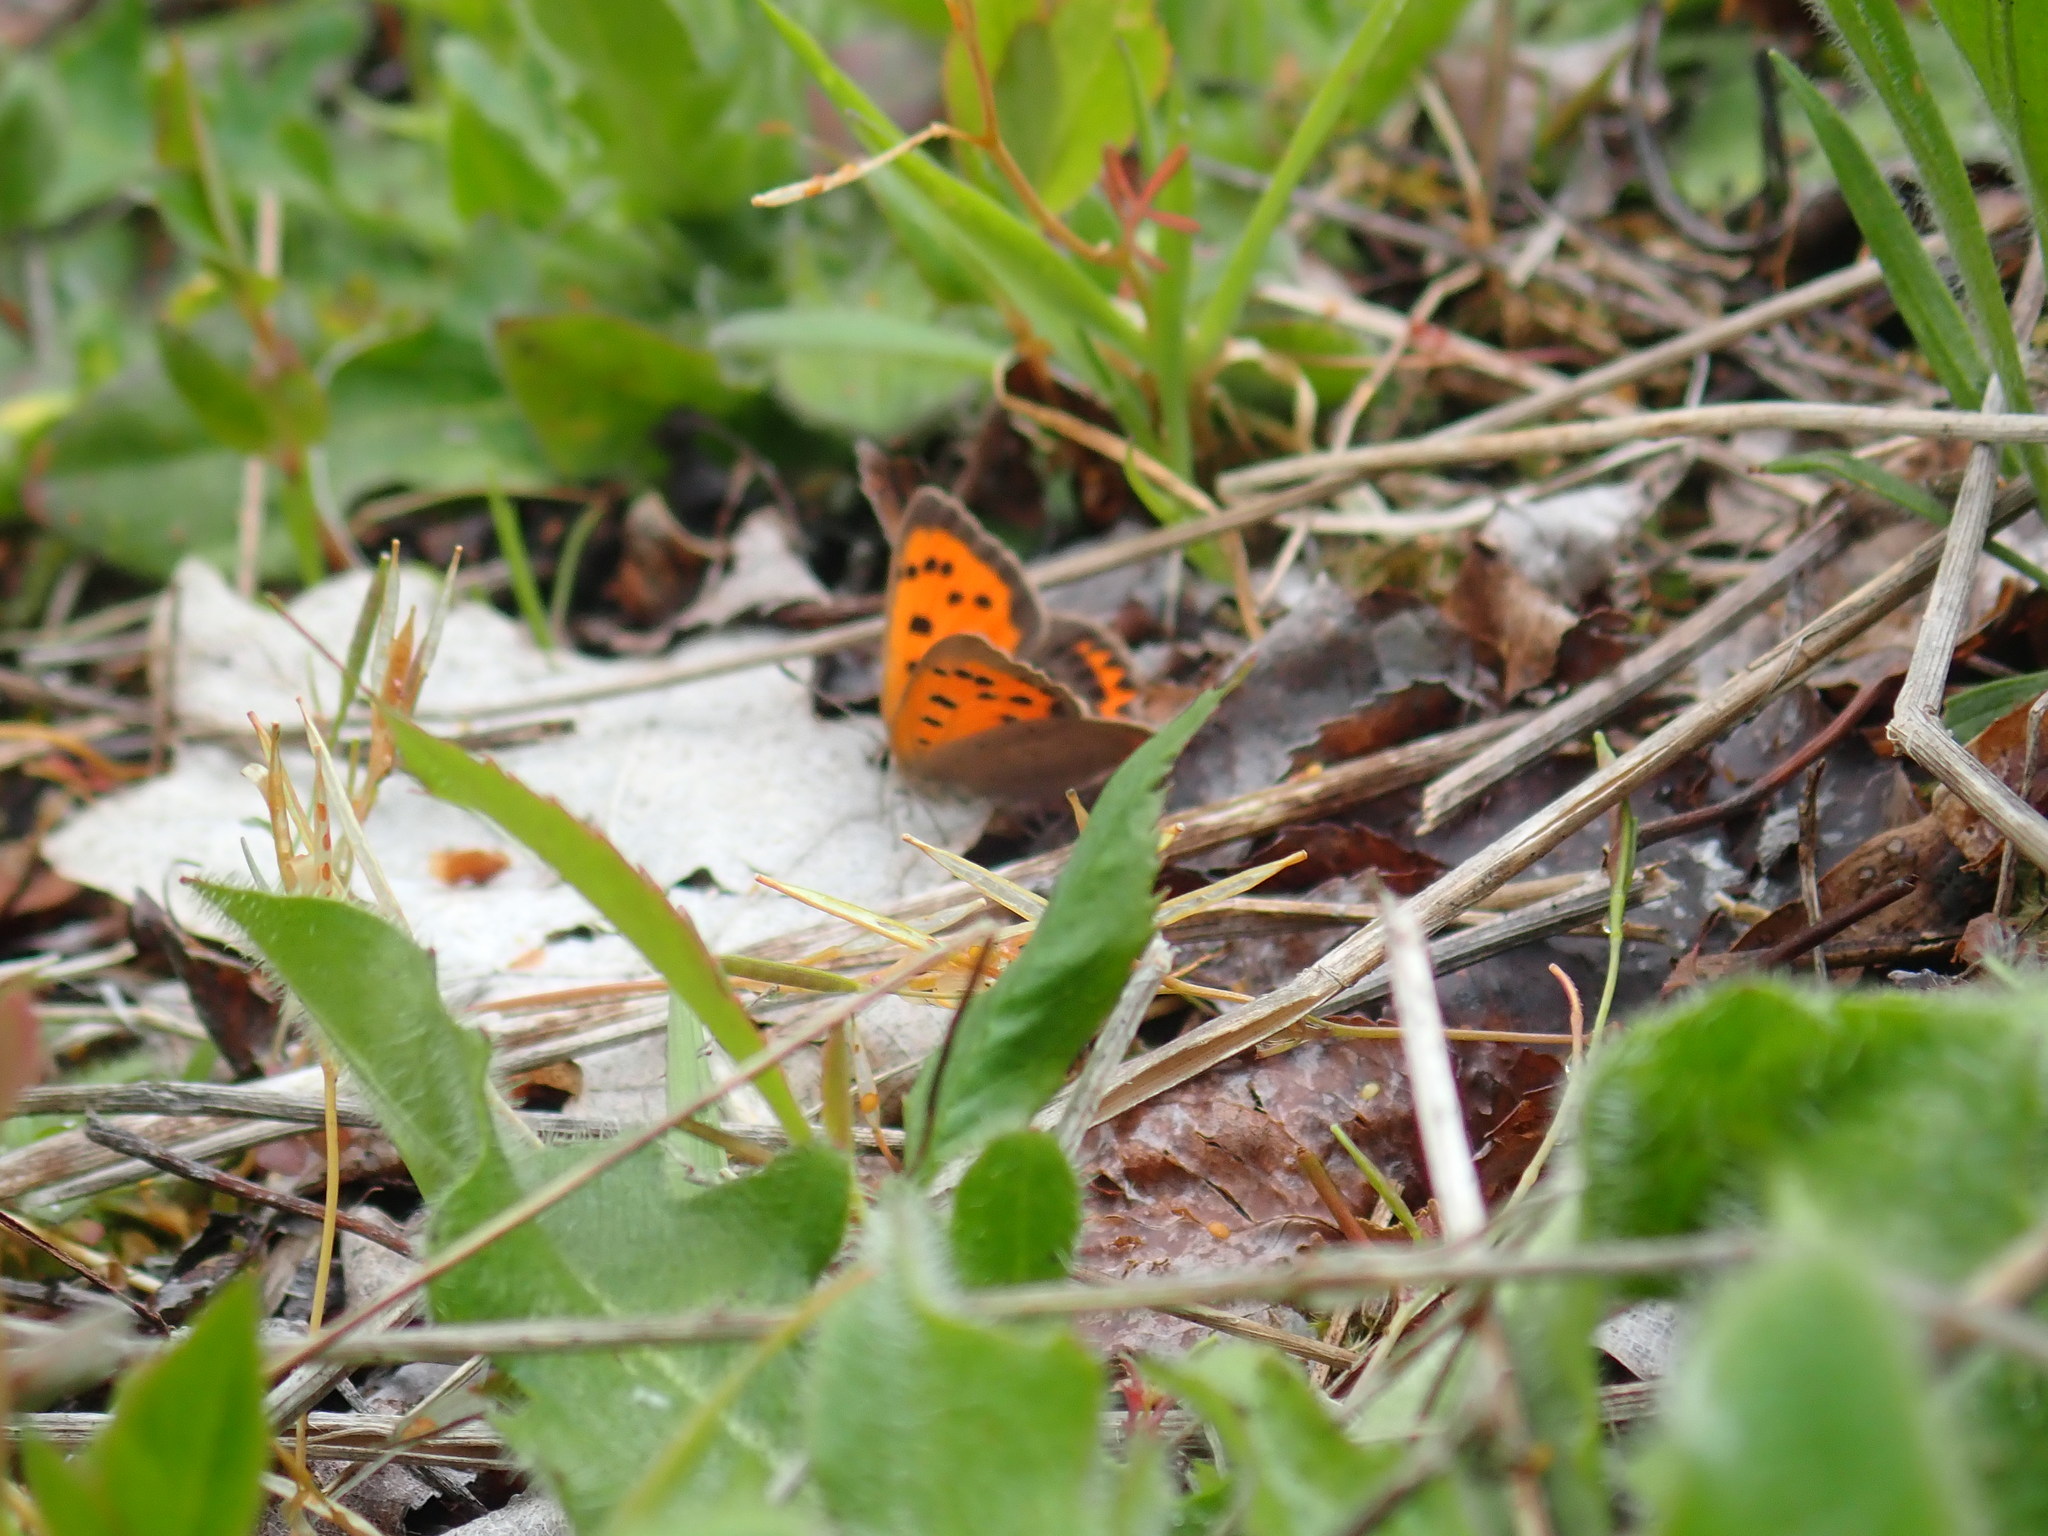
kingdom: Animalia
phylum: Arthropoda
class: Insecta
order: Lepidoptera
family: Lycaenidae
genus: Lycaena
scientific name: Lycaena phlaeas
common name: Small copper
